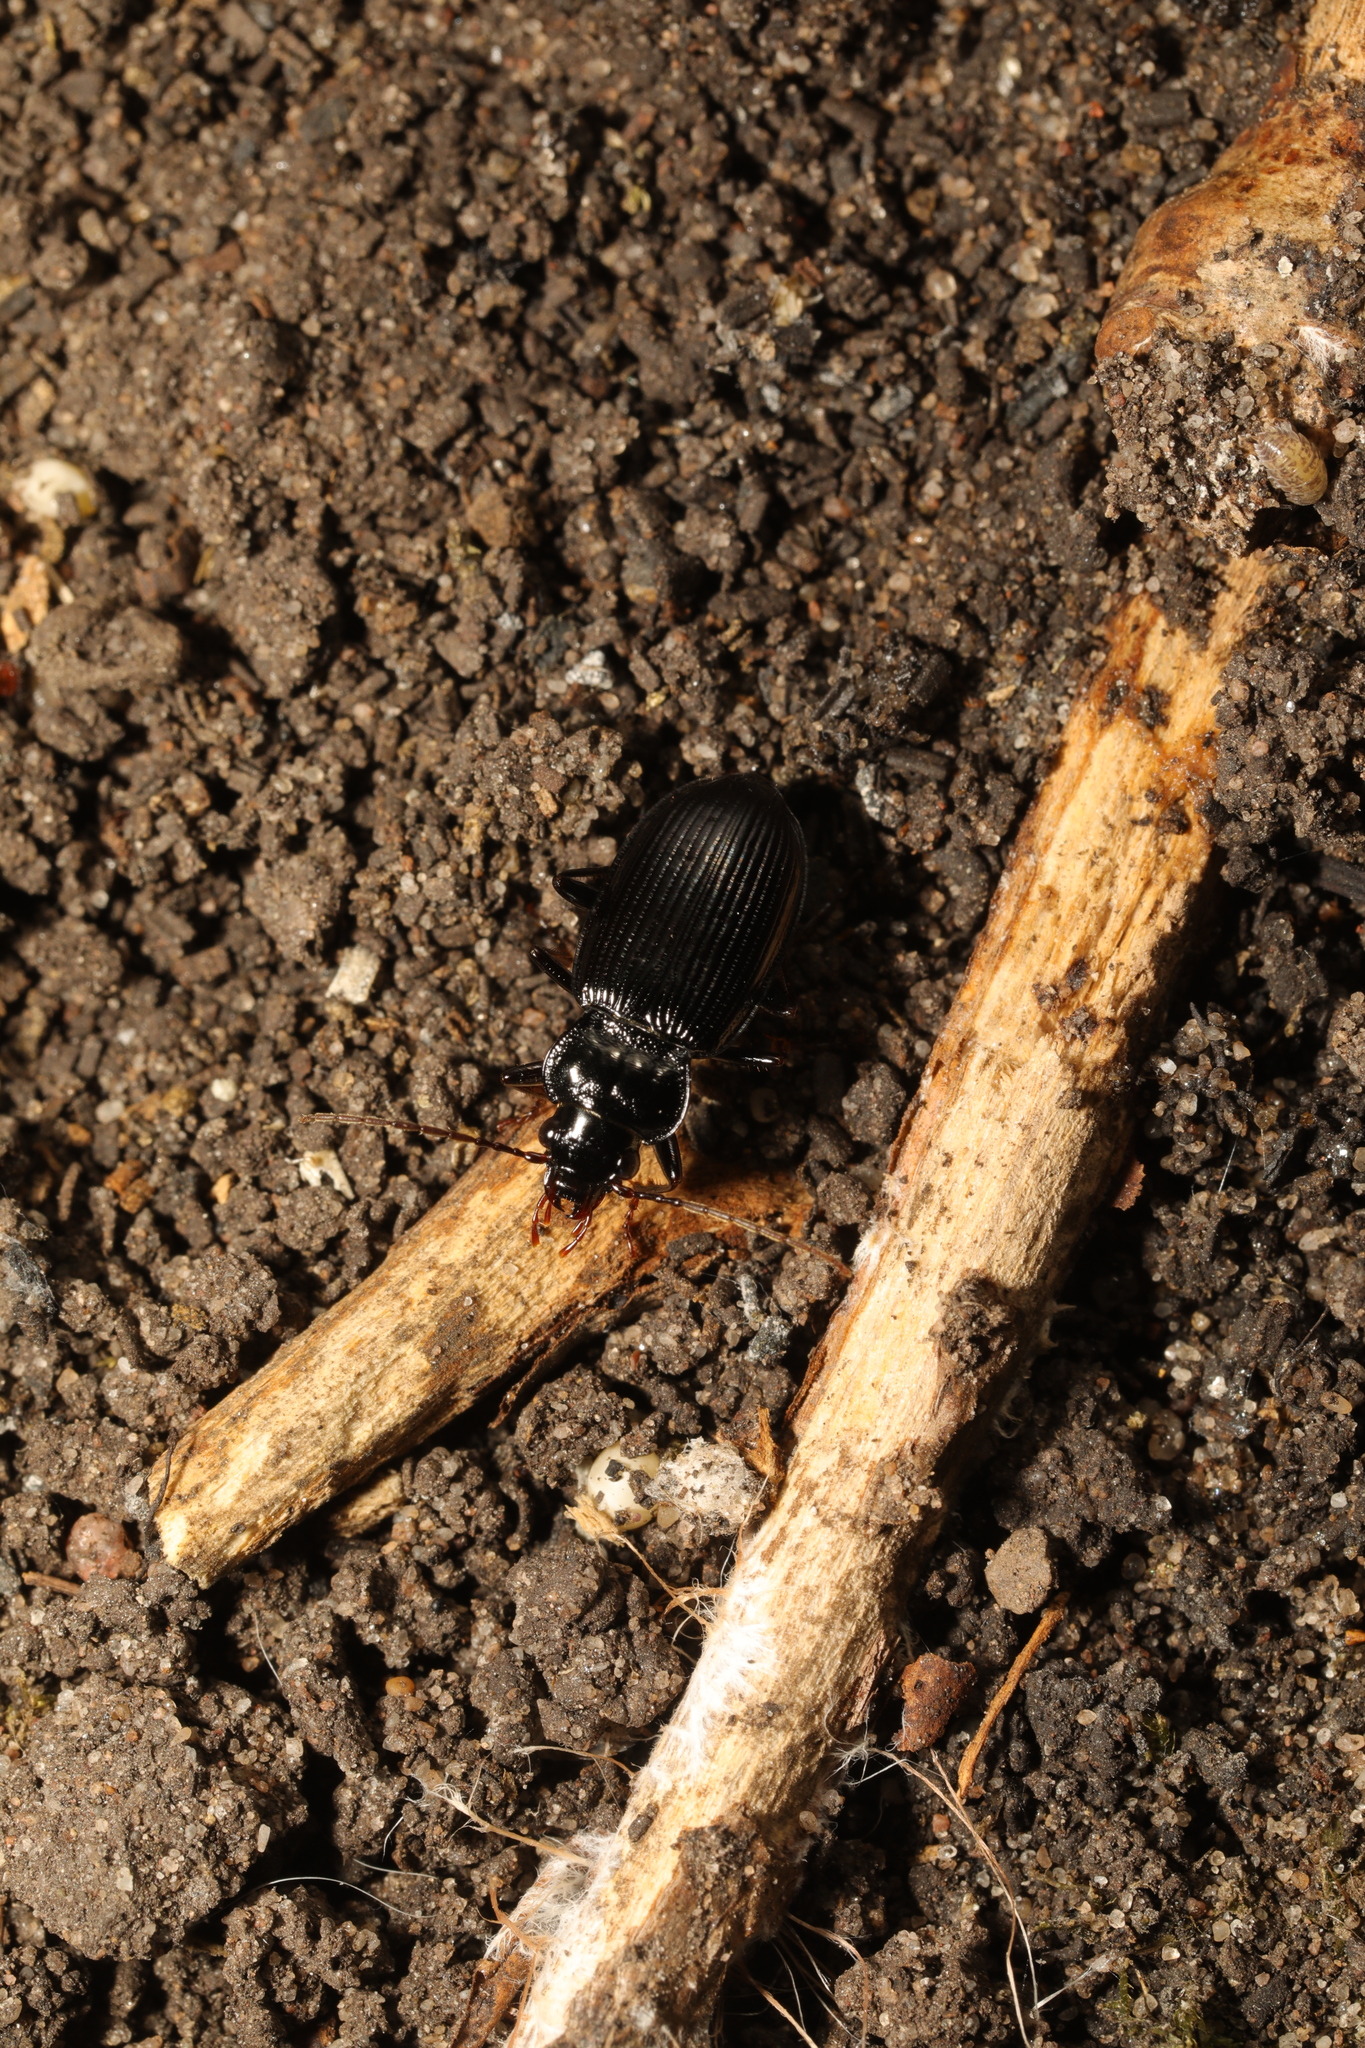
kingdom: Animalia
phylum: Arthropoda
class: Insecta
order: Coleoptera
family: Carabidae
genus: Nebria
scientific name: Nebria brevicollis
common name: Short-necked gazelle beetle
